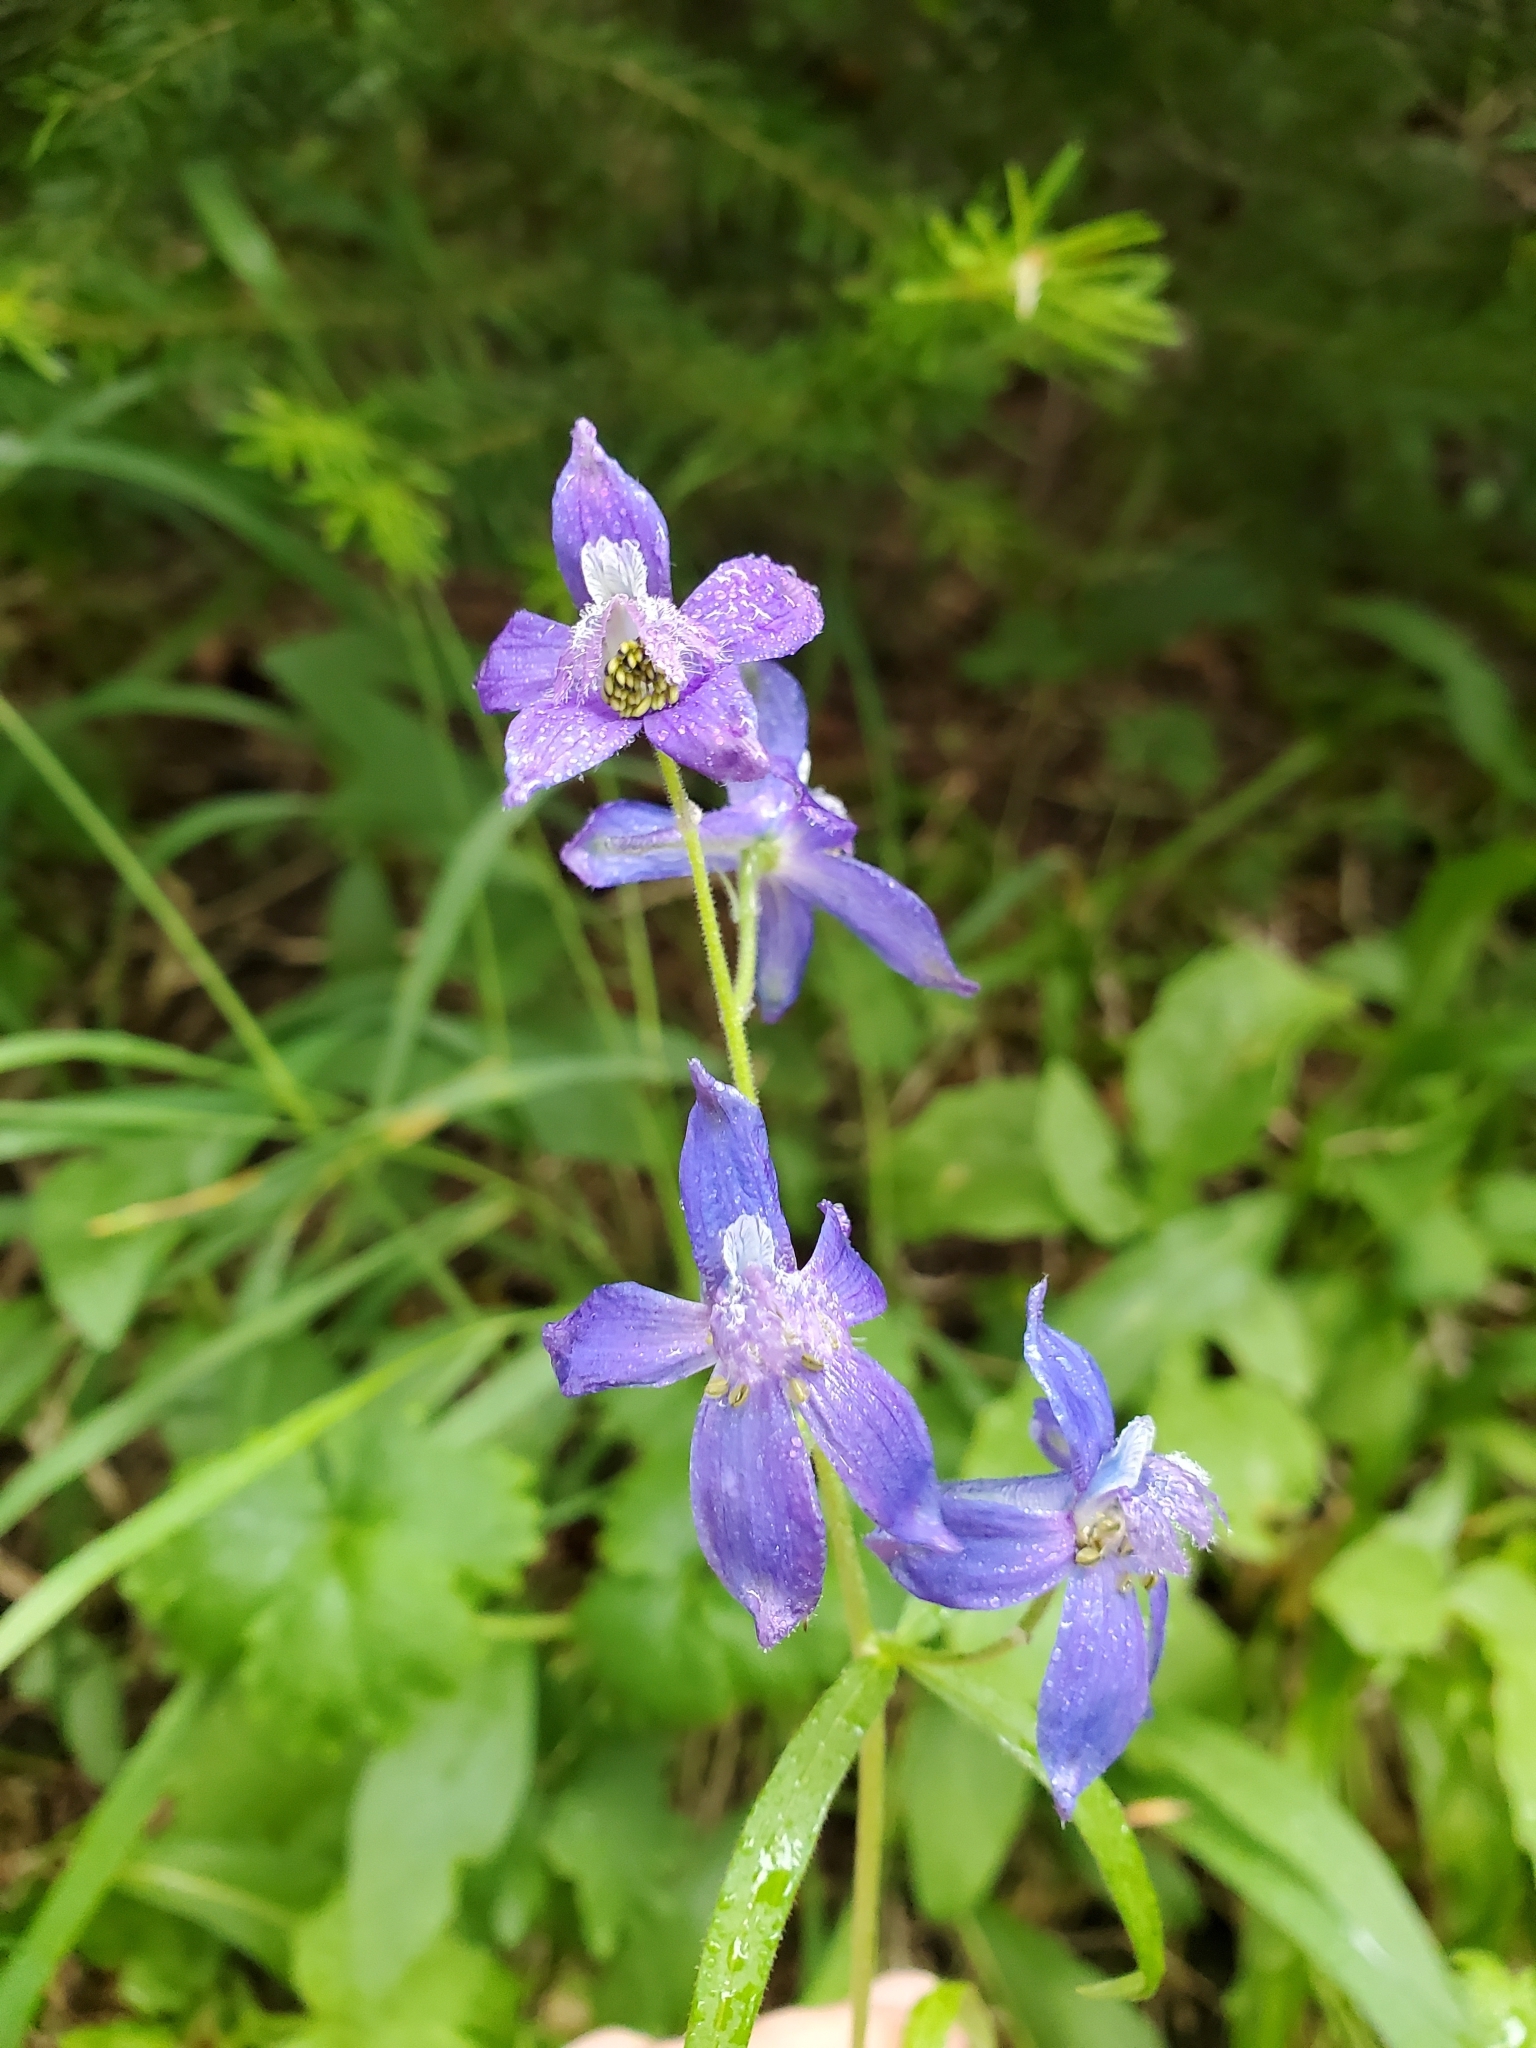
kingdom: Plantae
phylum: Tracheophyta
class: Magnoliopsida
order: Ranunculales
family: Ranunculaceae
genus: Delphinium
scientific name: Delphinium nuttallianum
